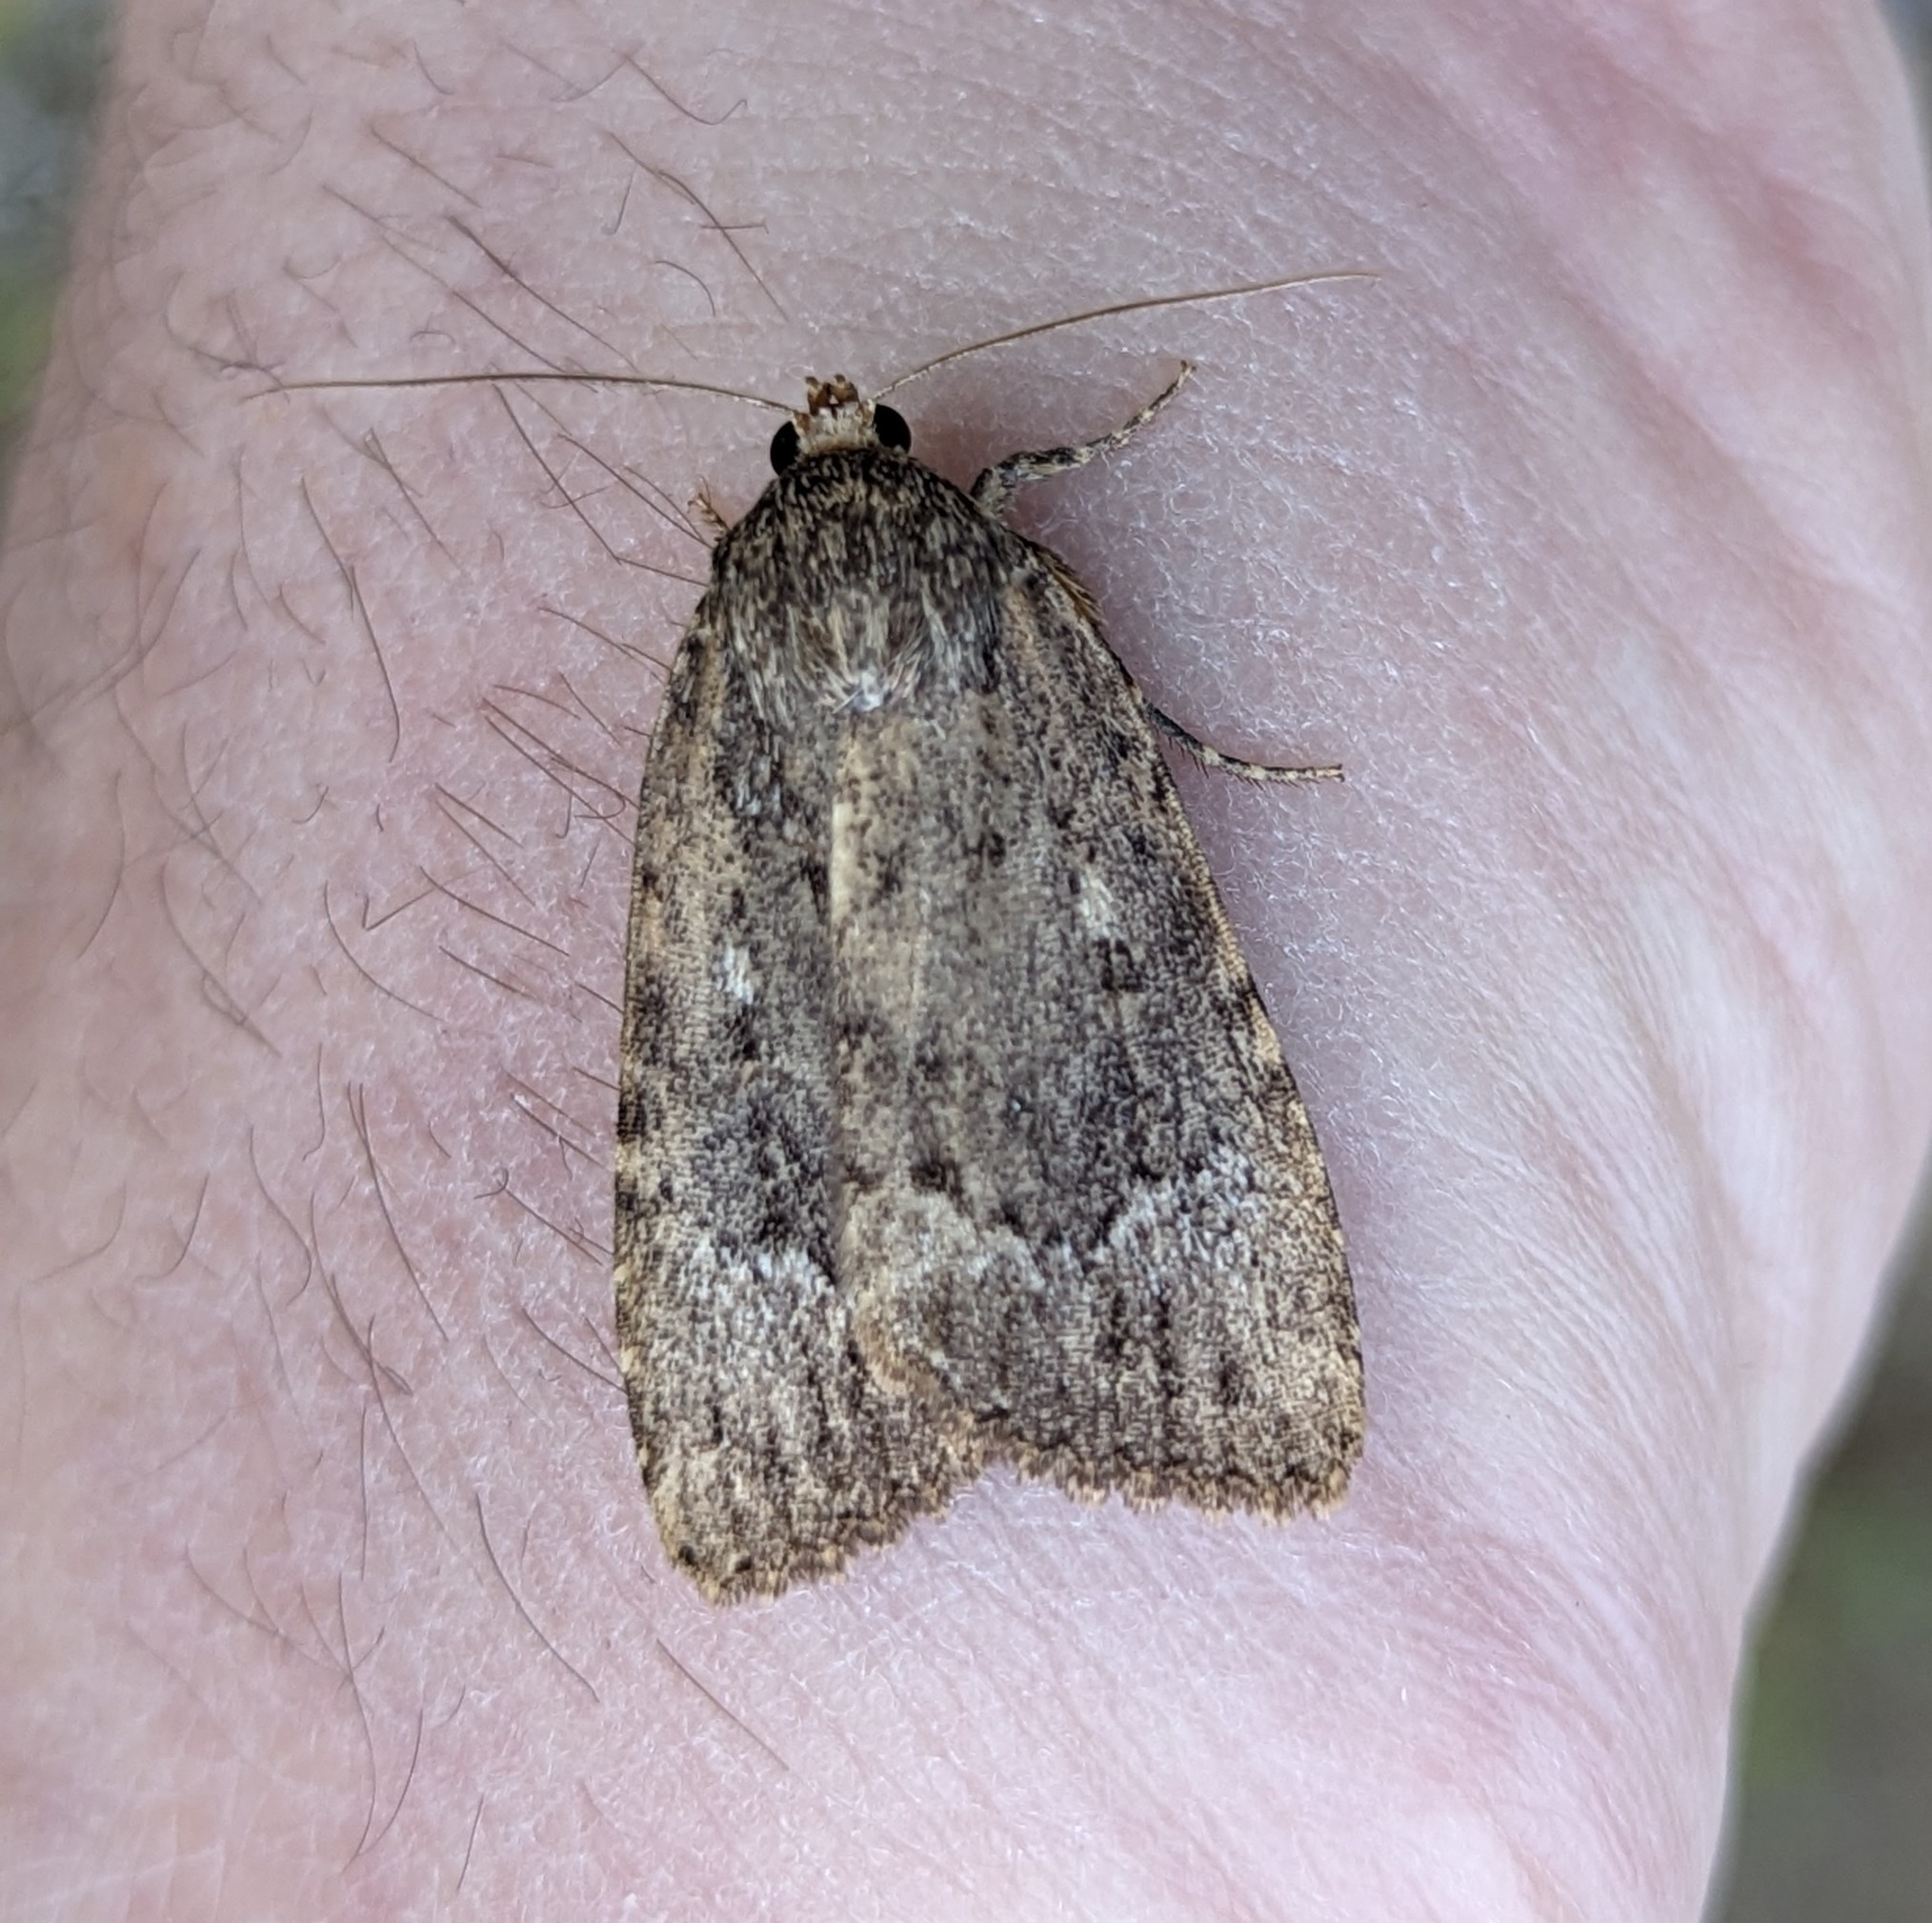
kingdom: Animalia
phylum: Arthropoda
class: Insecta
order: Lepidoptera
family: Noctuidae
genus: Amphipyra
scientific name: Amphipyra pyramidoides
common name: American copper underwing
